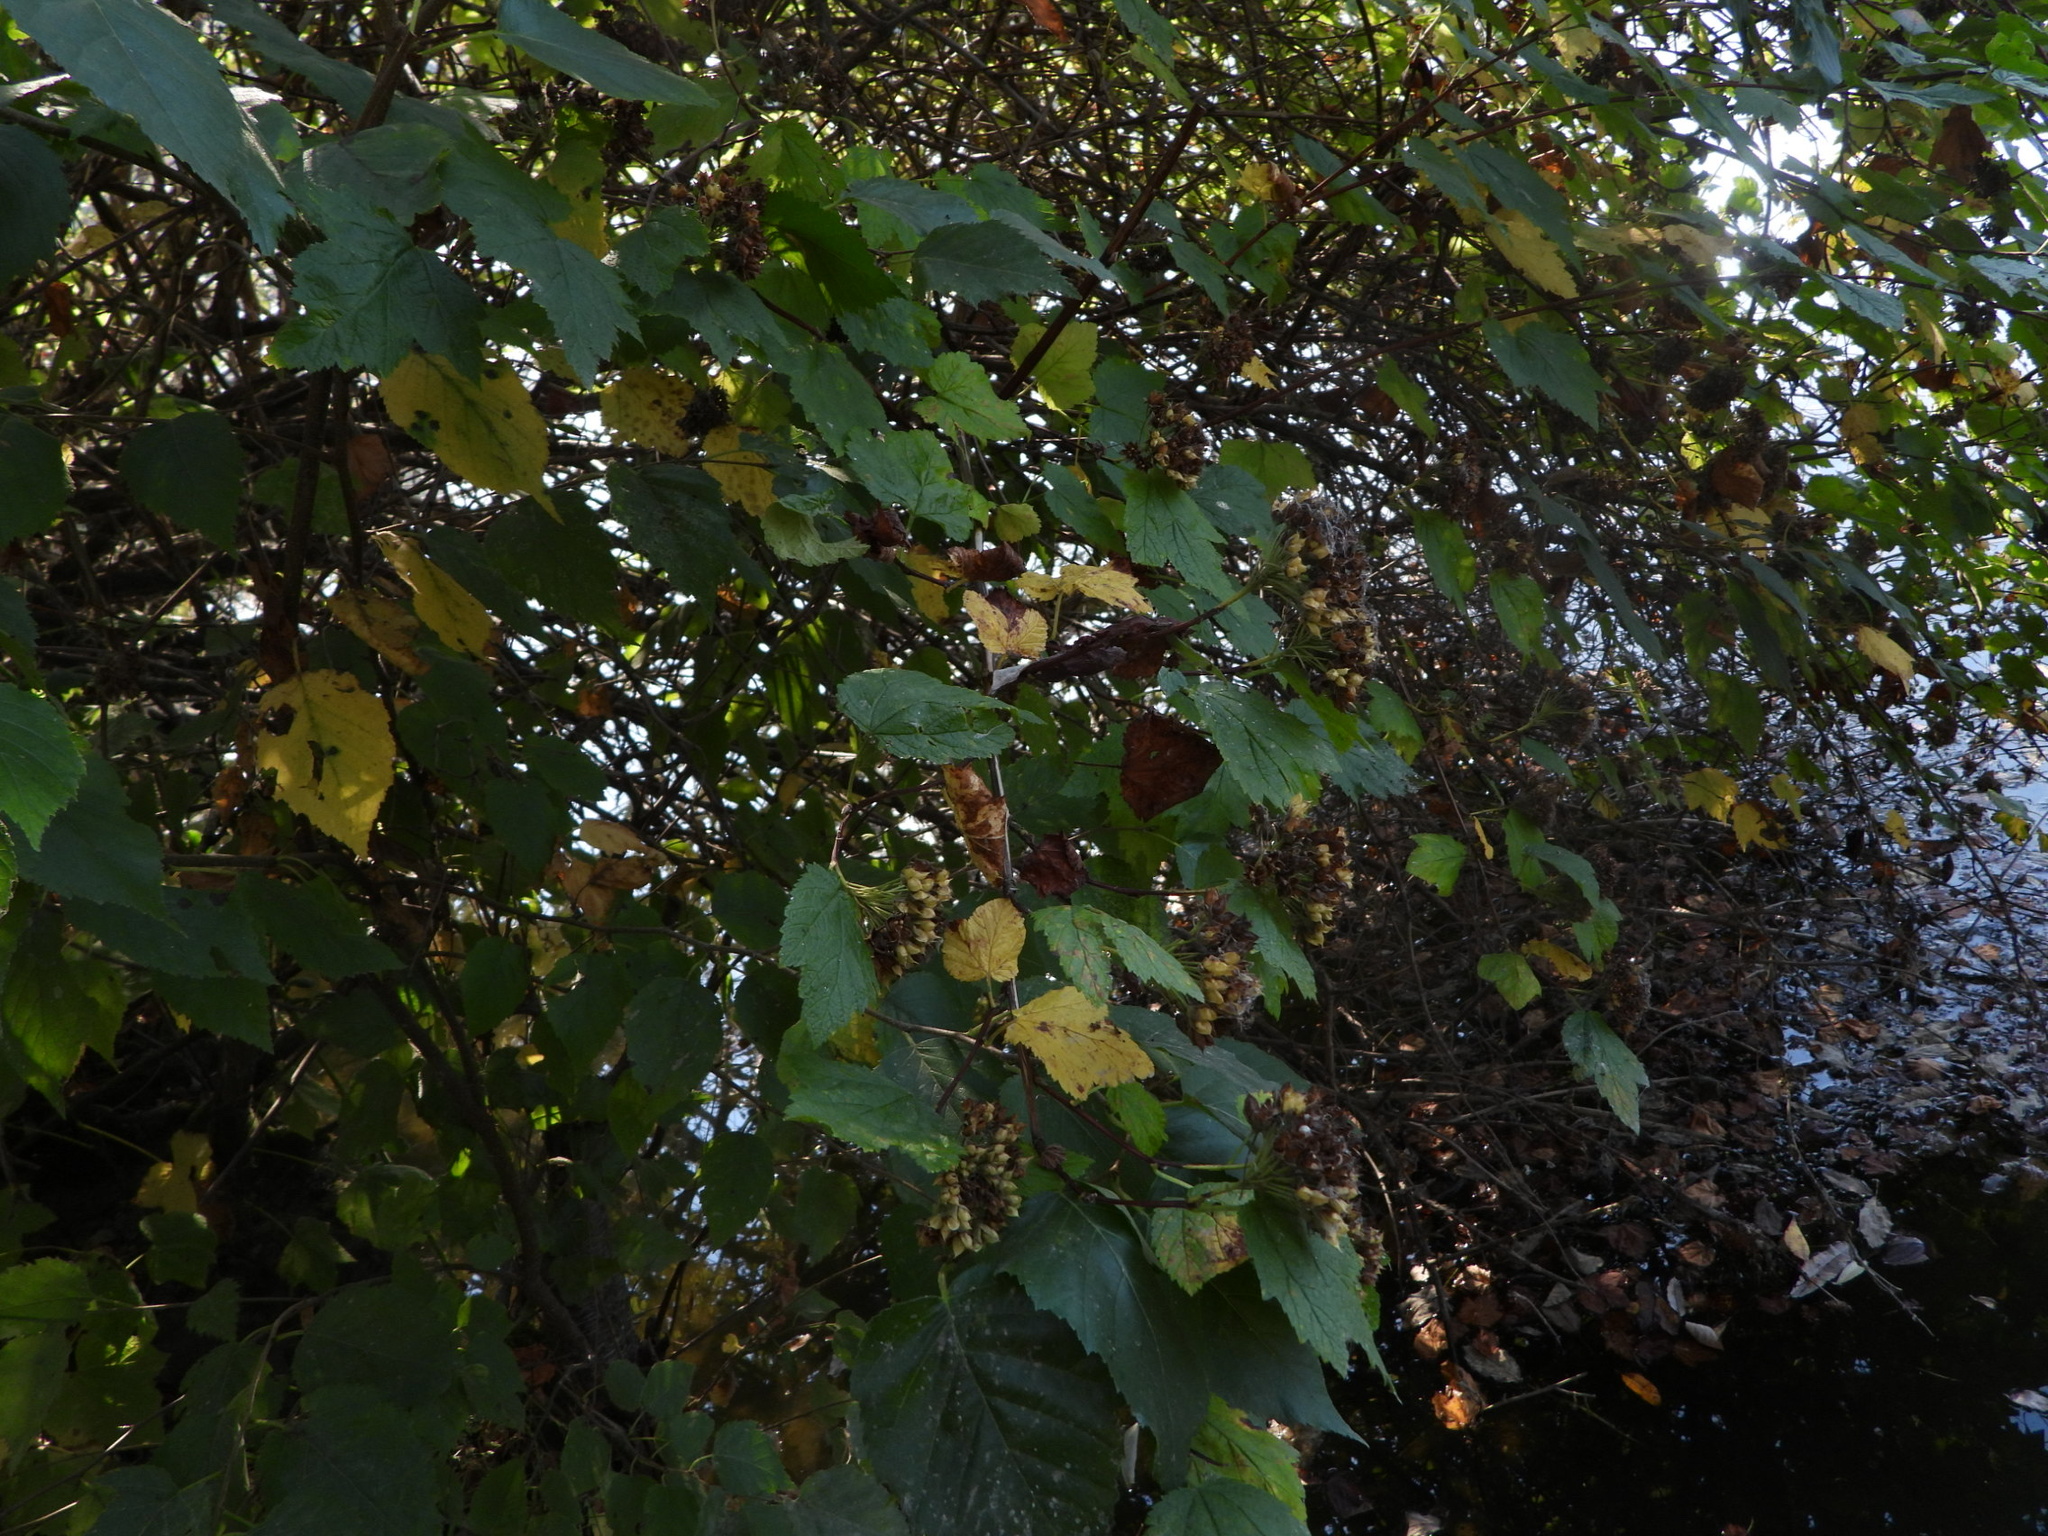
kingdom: Plantae
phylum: Tracheophyta
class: Magnoliopsida
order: Rosales
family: Rosaceae
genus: Physocarpus
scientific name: Physocarpus capitatus
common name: Pacific ninebark
